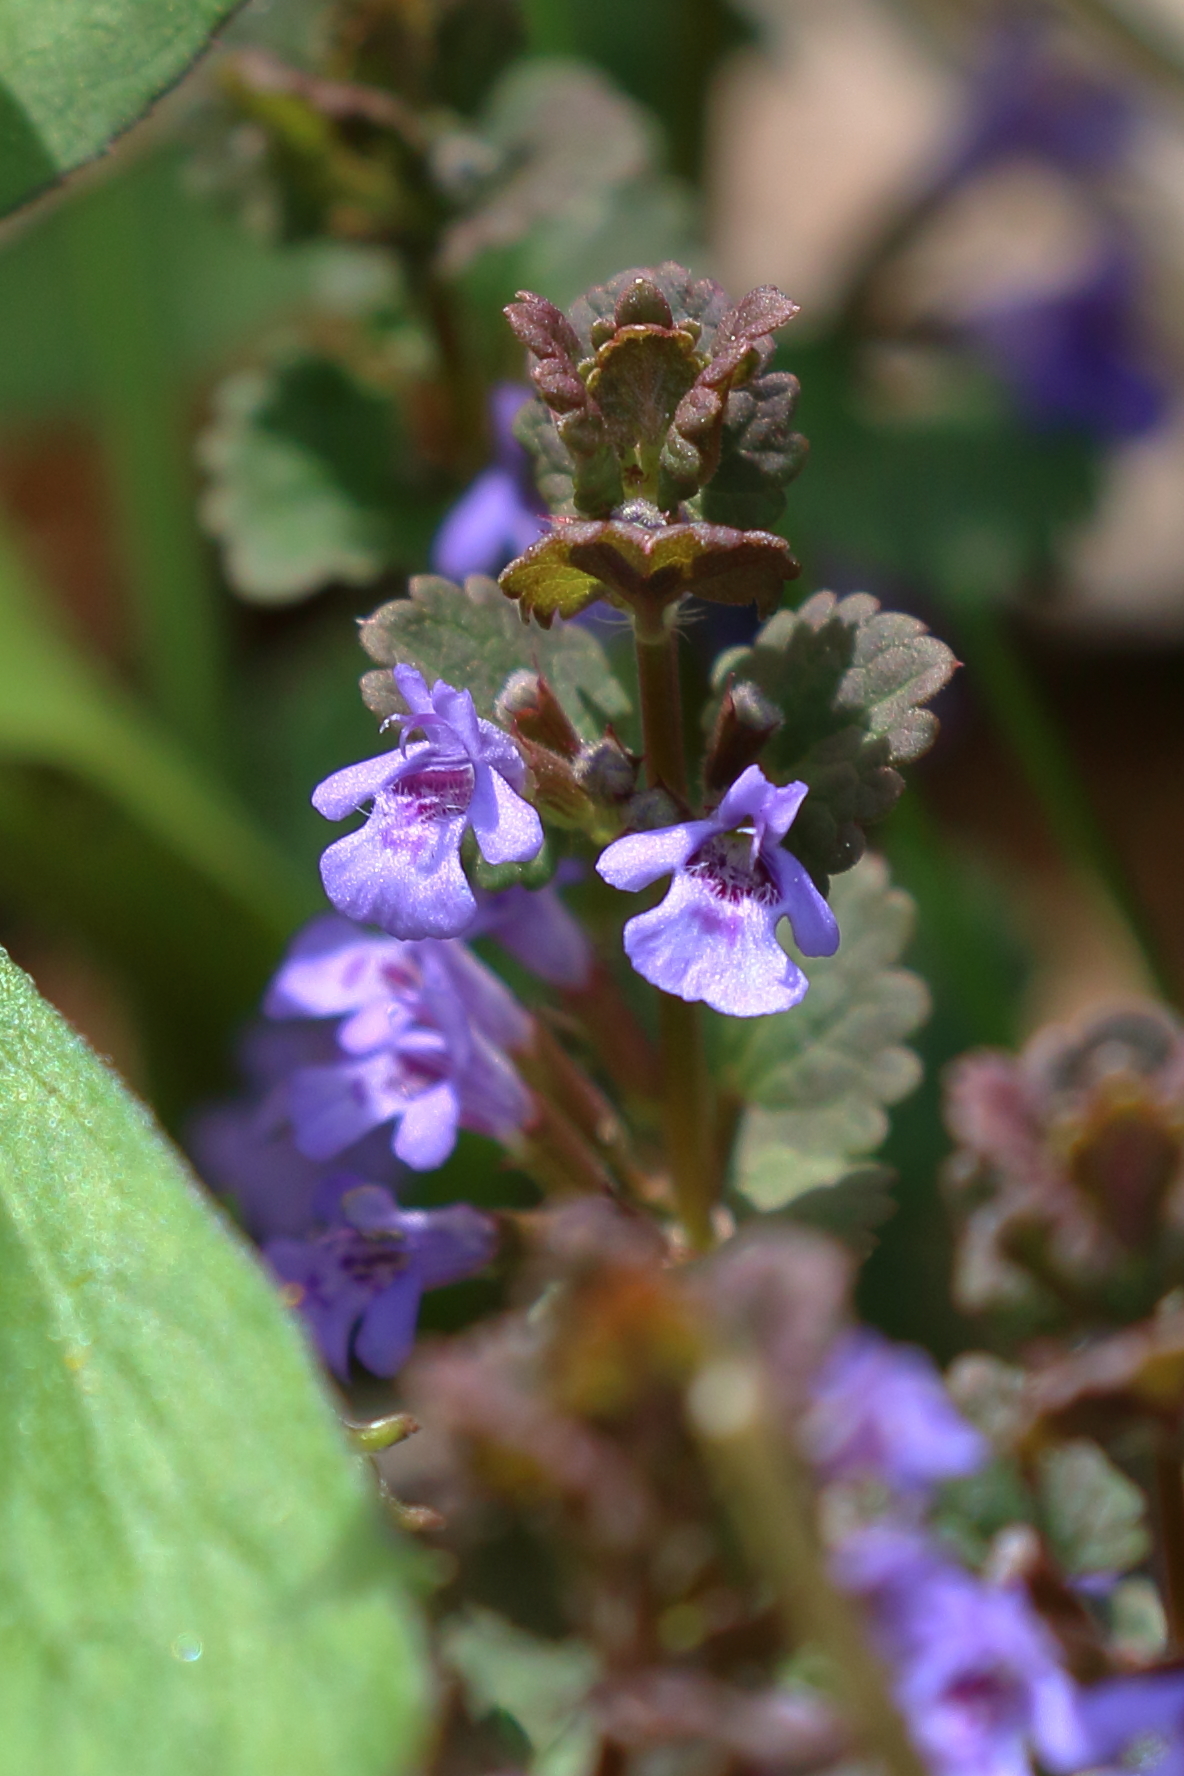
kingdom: Plantae
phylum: Tracheophyta
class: Magnoliopsida
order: Lamiales
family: Lamiaceae
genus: Glechoma
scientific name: Glechoma hederacea
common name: Ground ivy
